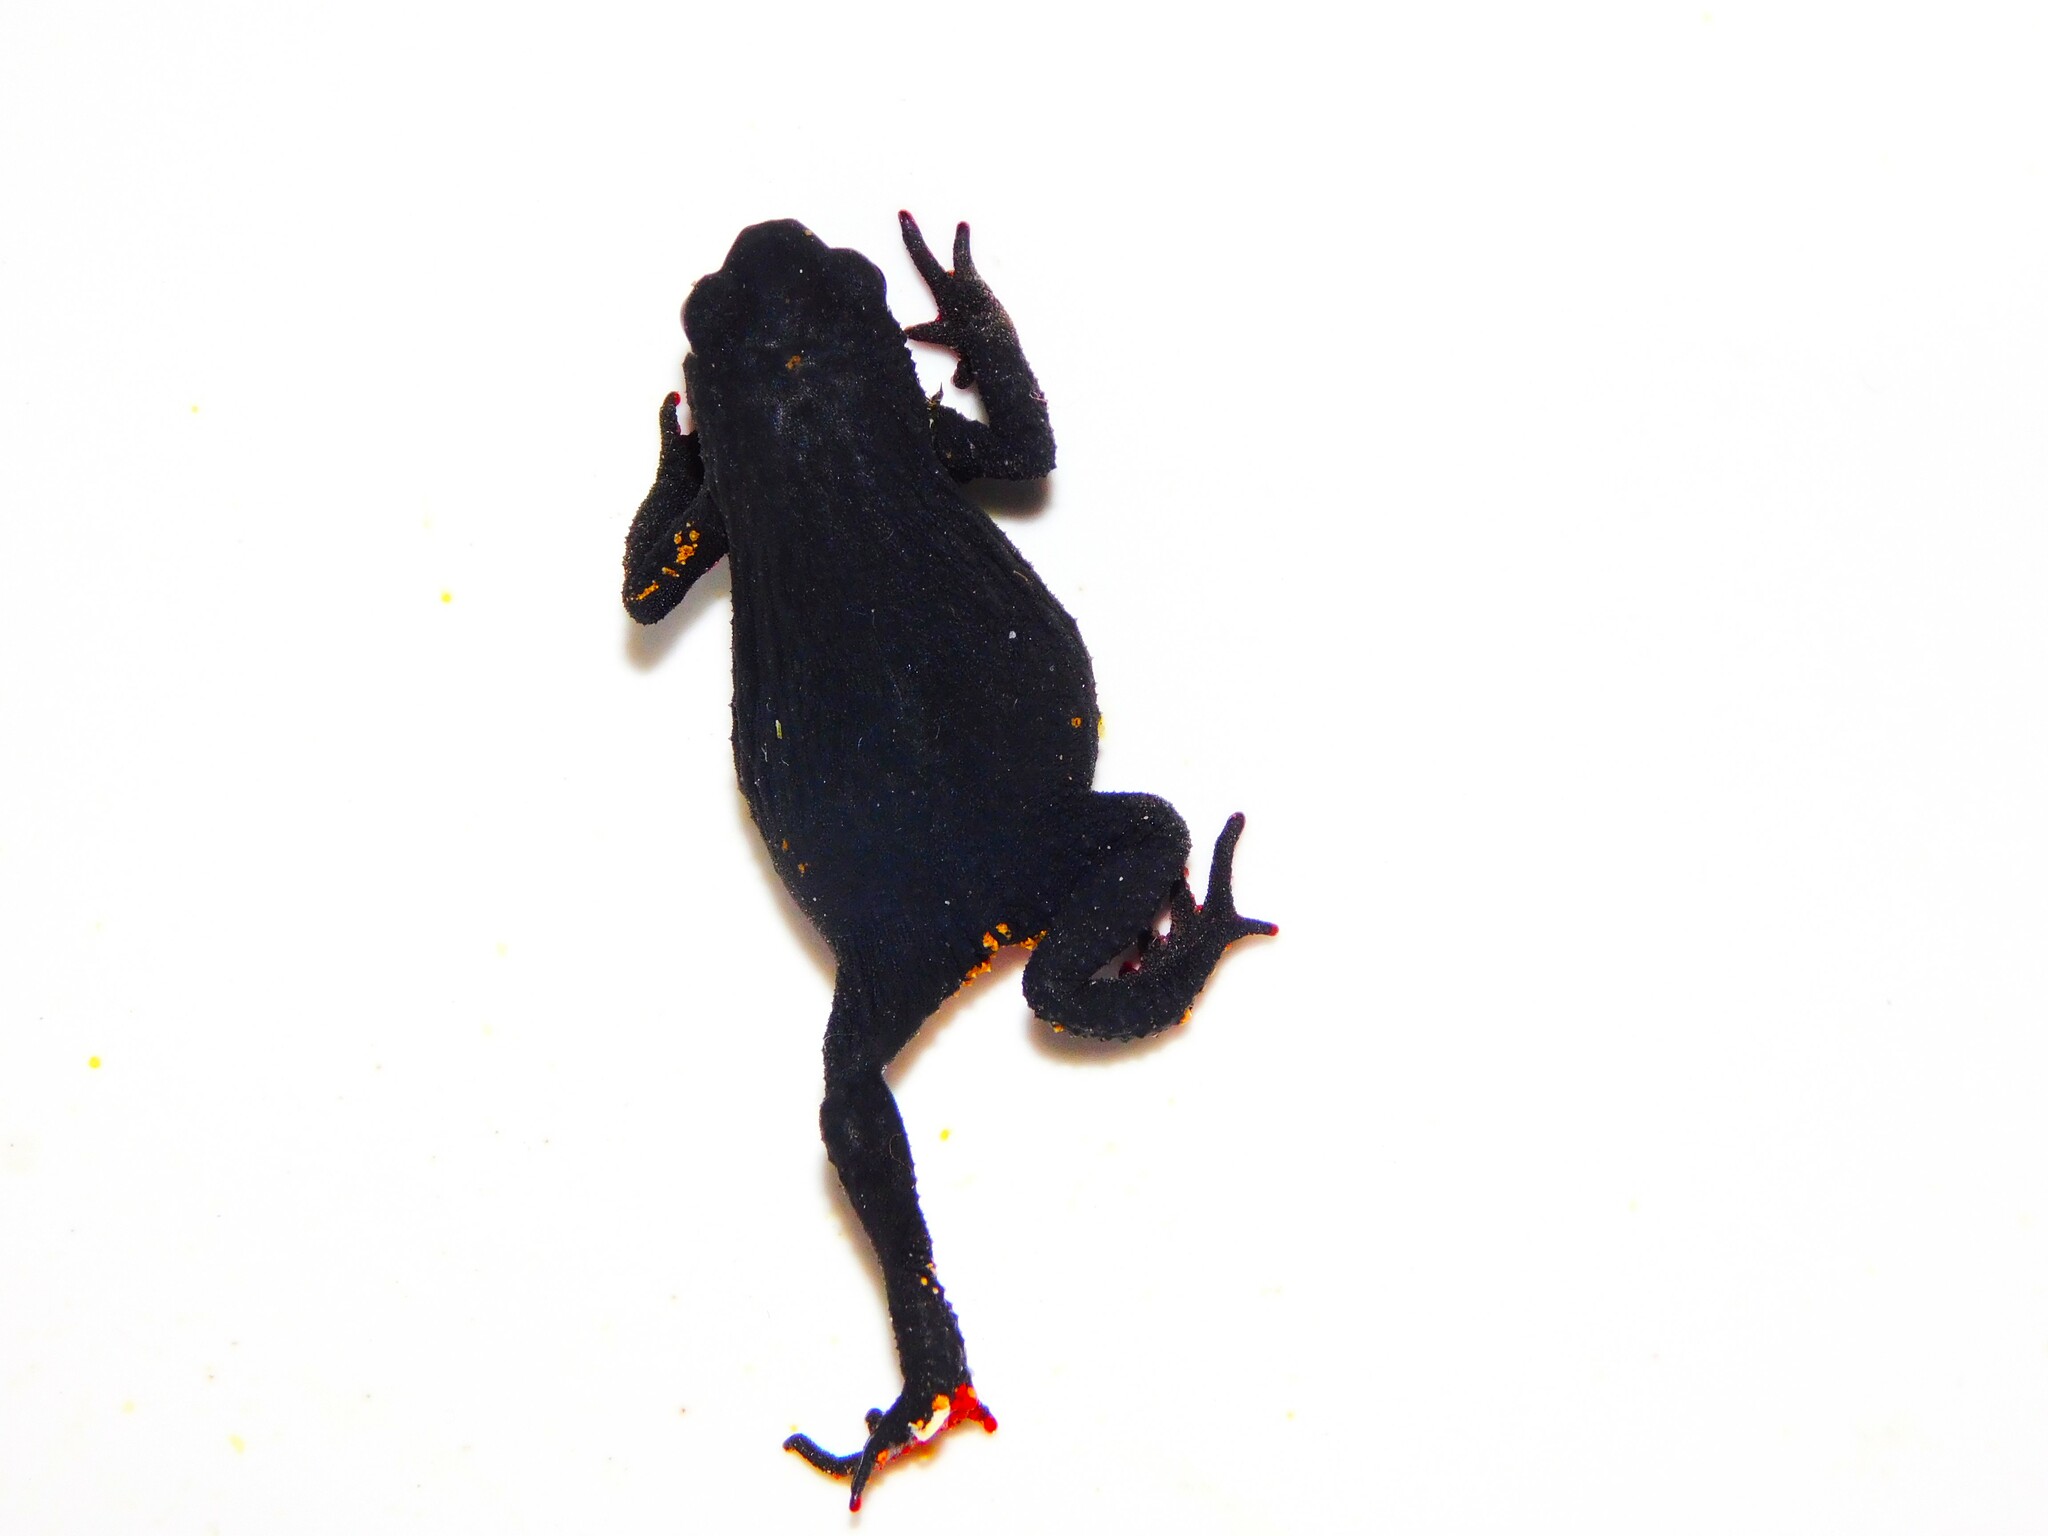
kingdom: Animalia
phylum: Chordata
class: Amphibia
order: Anura
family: Bufonidae
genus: Melanophryniscus
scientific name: Melanophryniscus atroluteus
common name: Uruguay red belly toad
